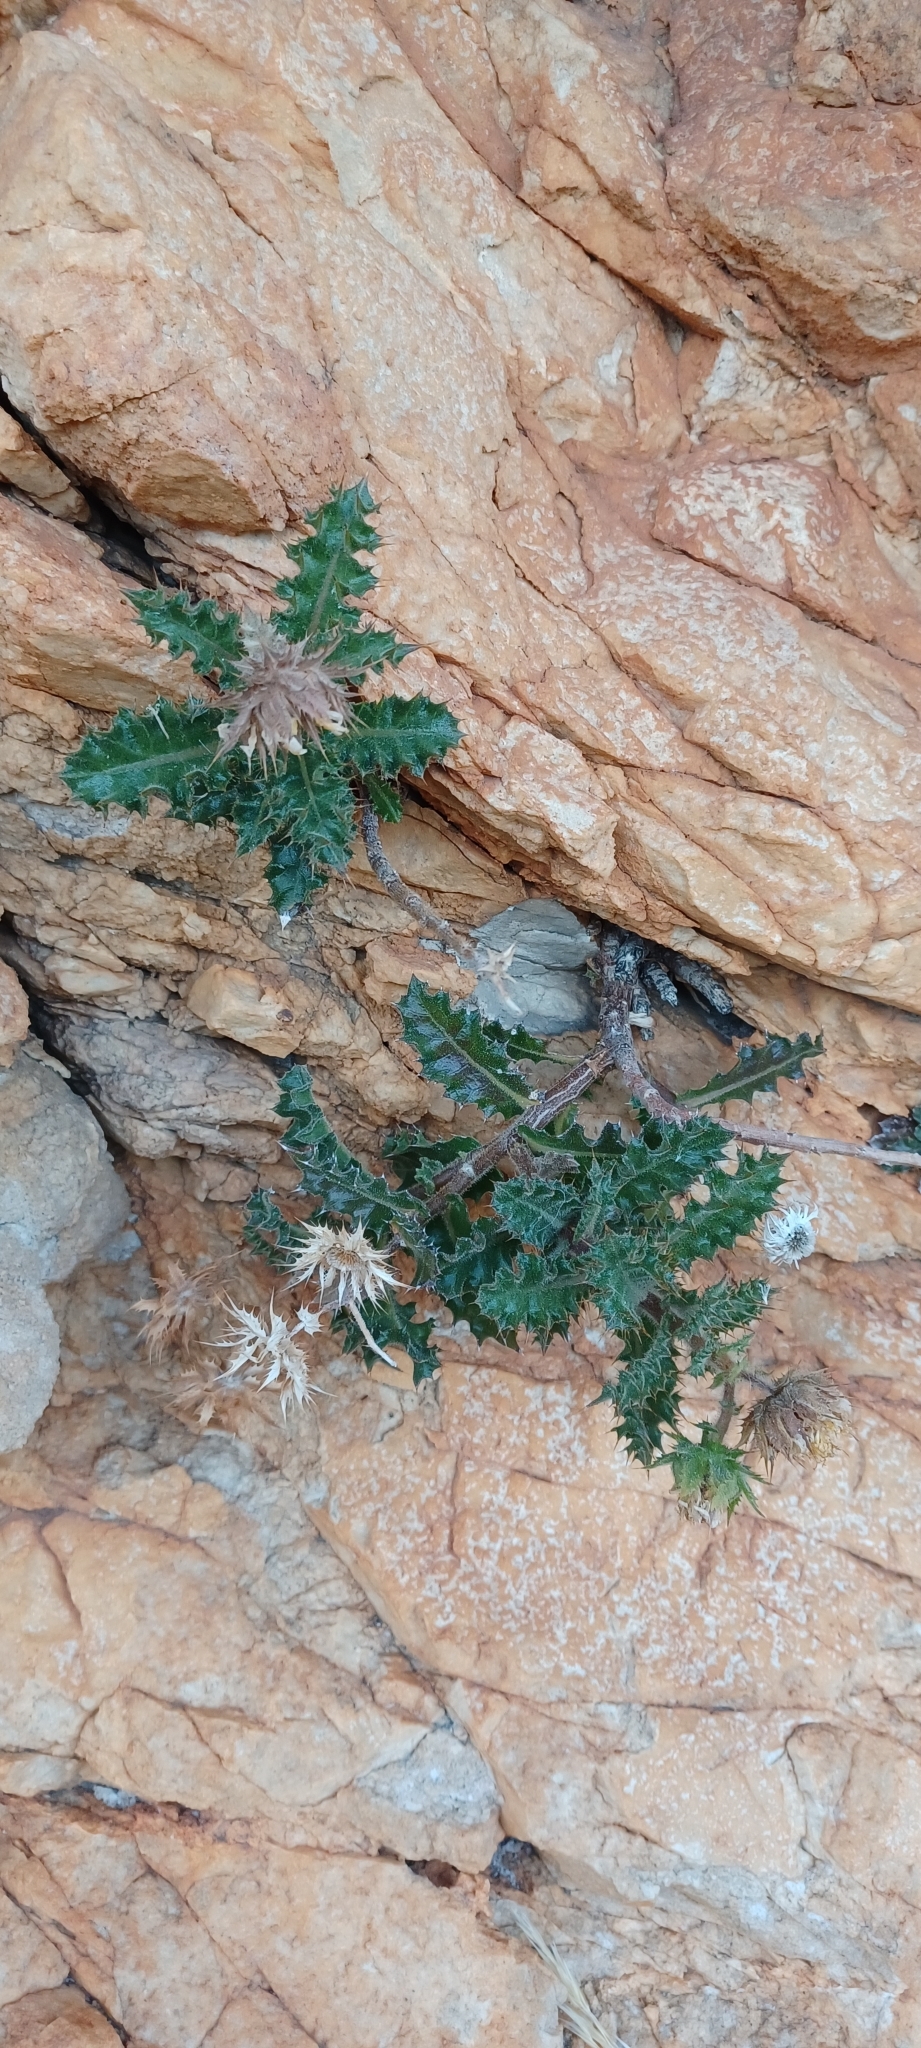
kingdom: Plantae
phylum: Tracheophyta
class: Magnoliopsida
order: Asterales
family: Asteraceae
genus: Berkheya
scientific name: Berkheya tysonii
